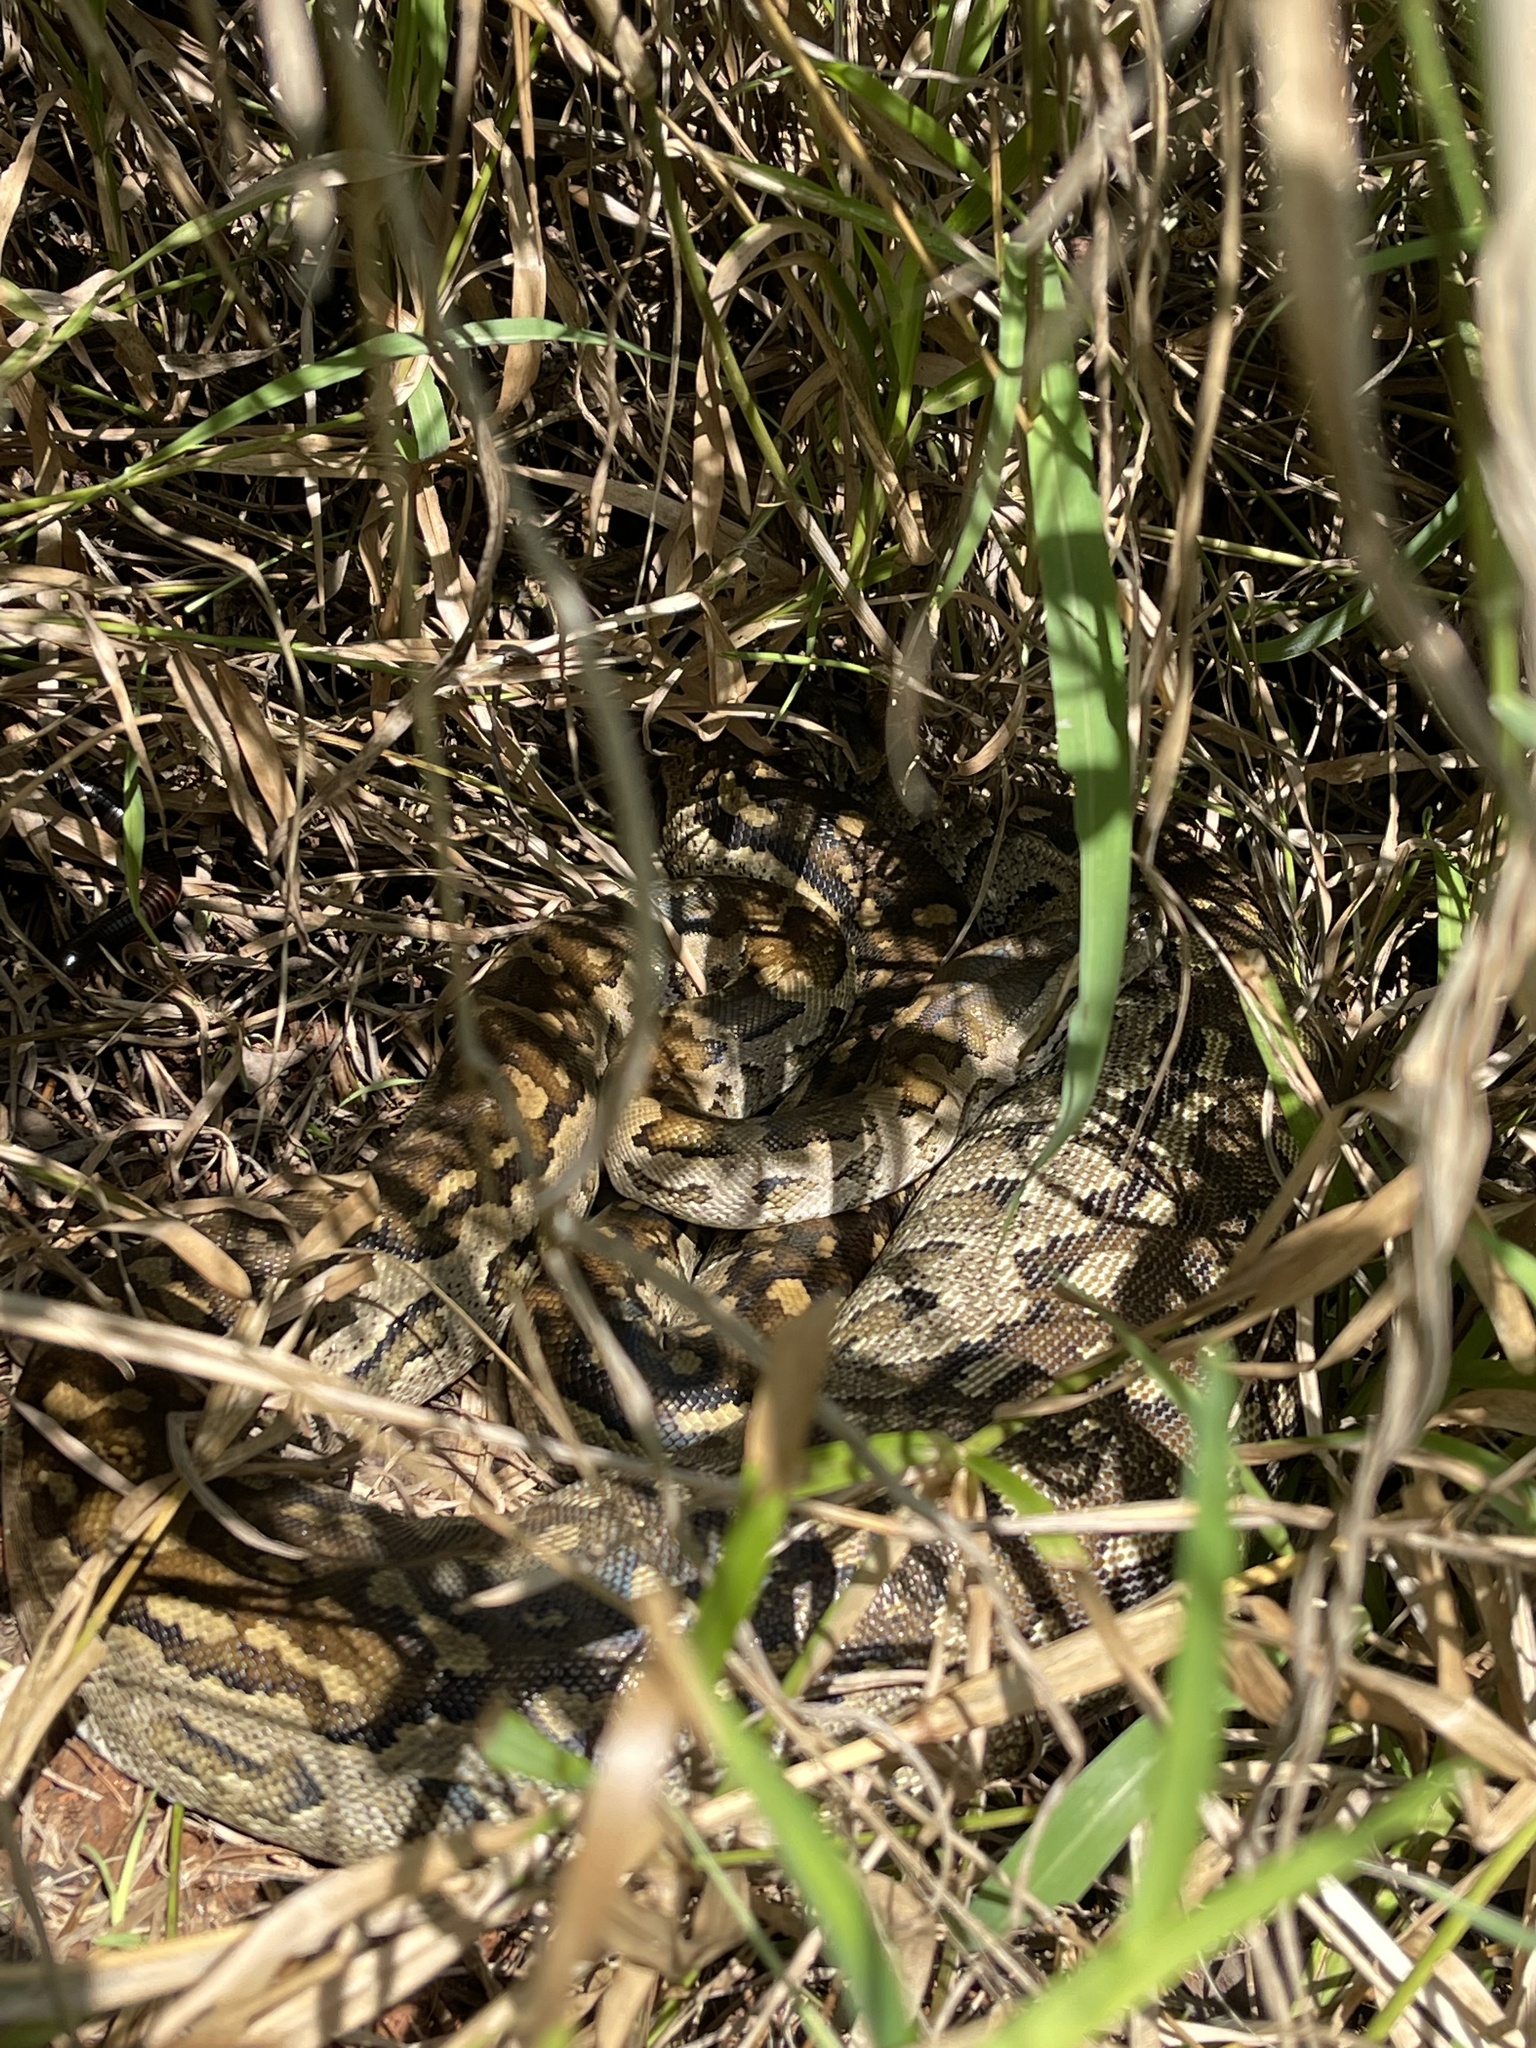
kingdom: Animalia
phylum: Chordata
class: Squamata
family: Pythonidae
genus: Python
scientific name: Python natalensis
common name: Southern african rock python
